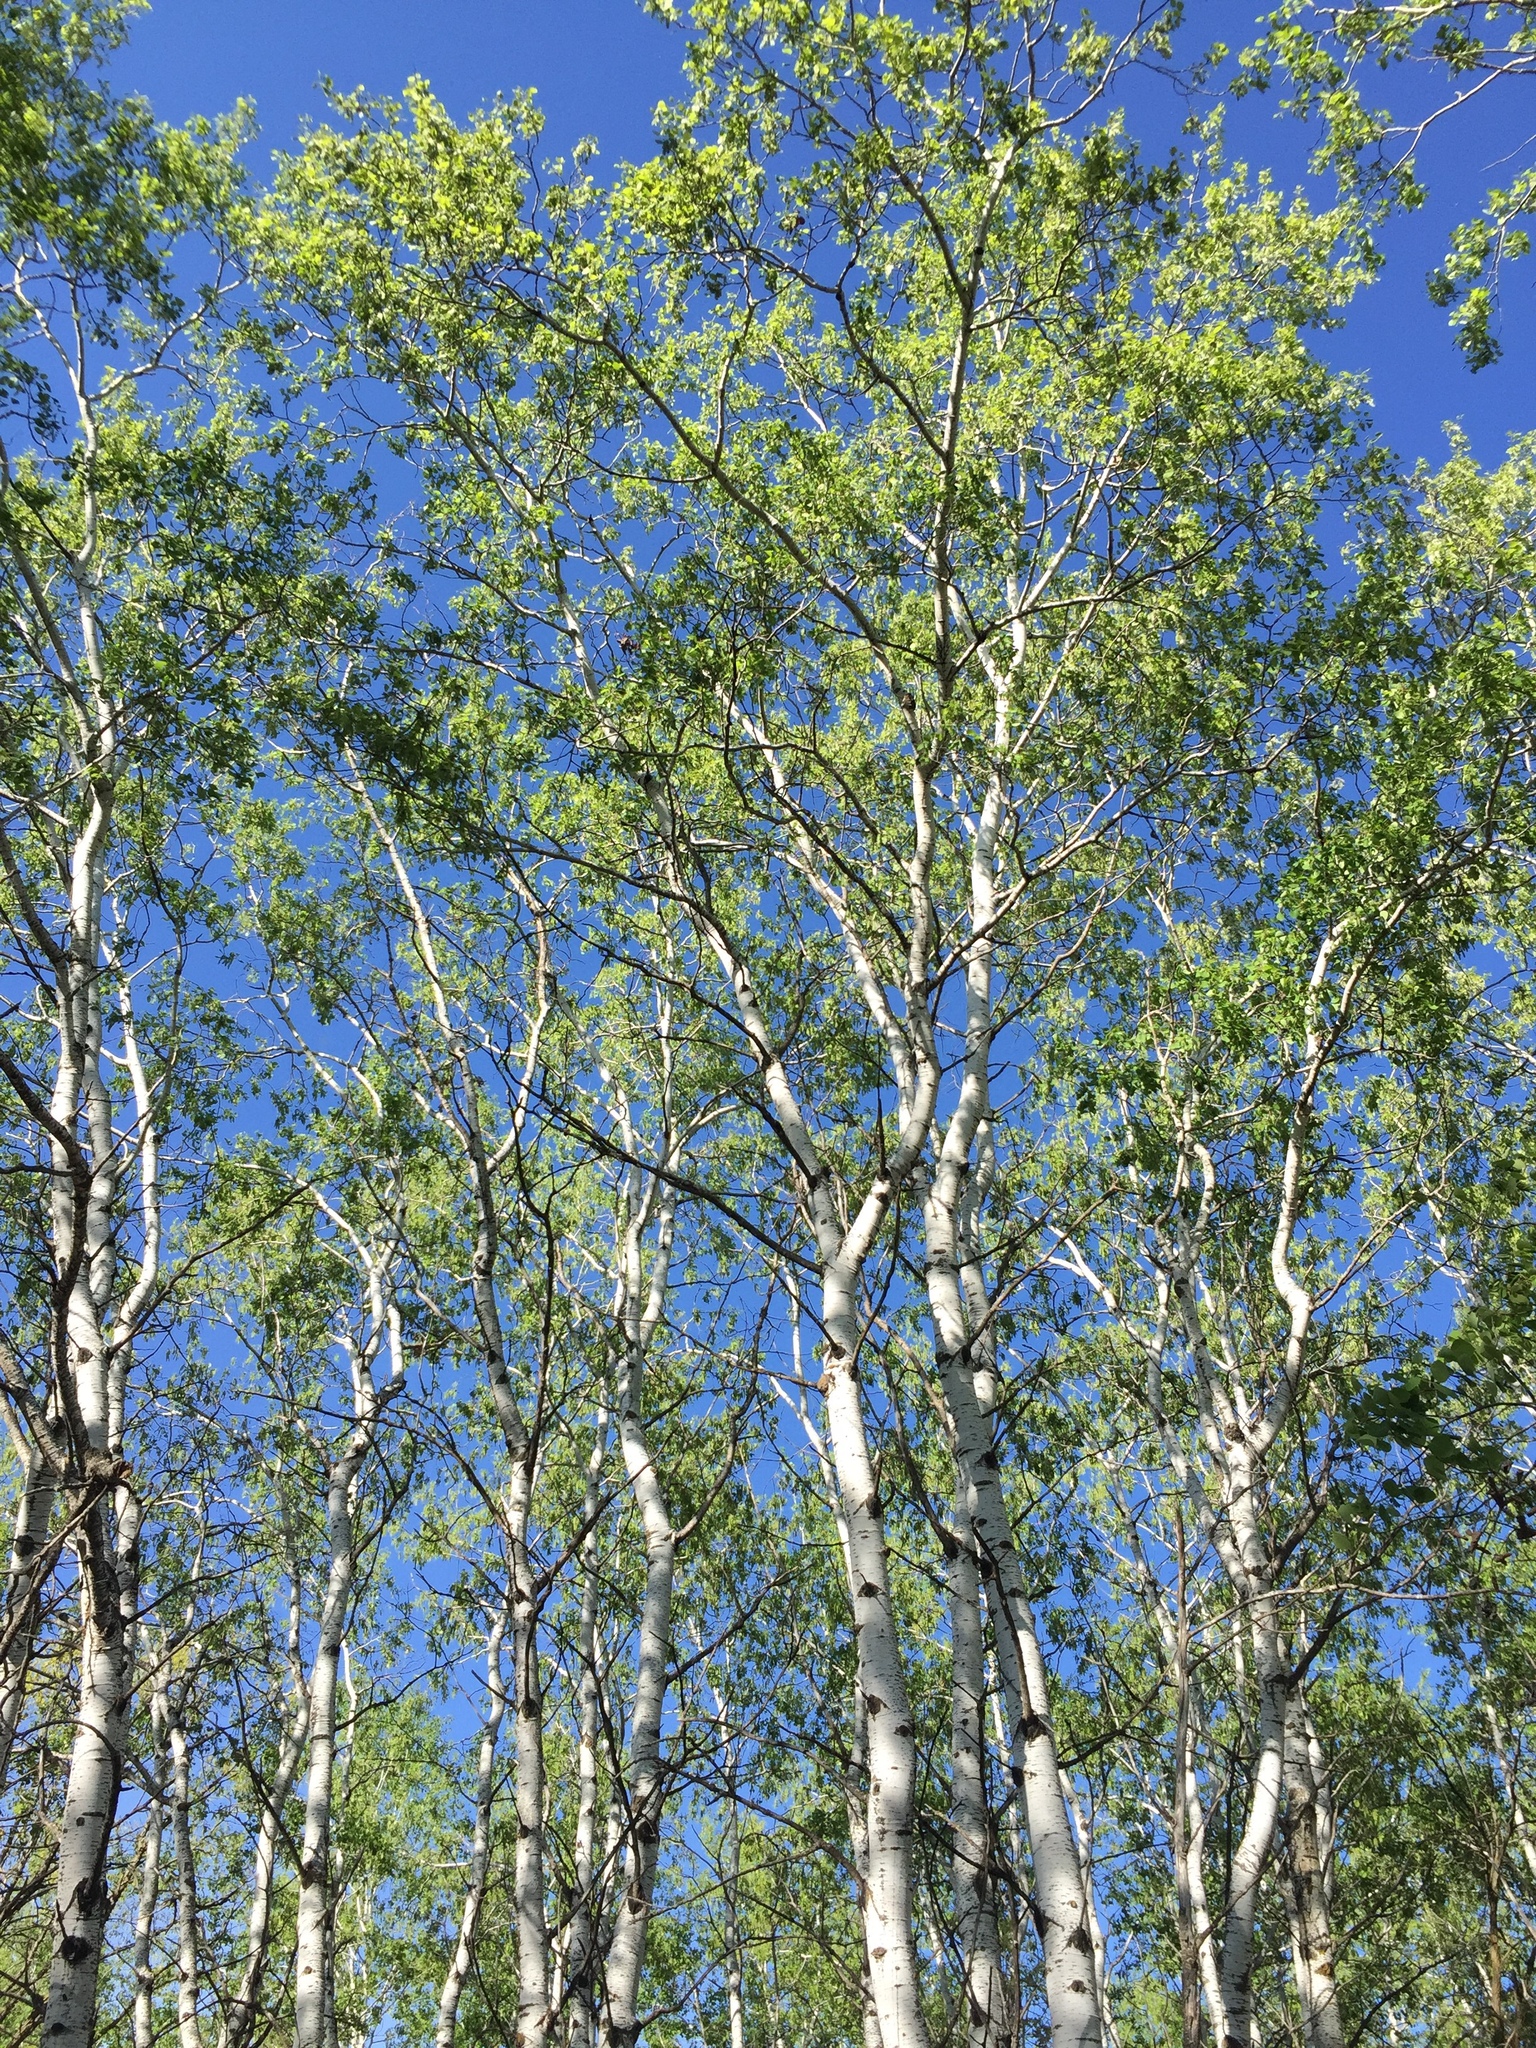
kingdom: Plantae
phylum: Tracheophyta
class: Magnoliopsida
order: Malpighiales
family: Salicaceae
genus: Populus
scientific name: Populus tremuloides
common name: Quaking aspen
